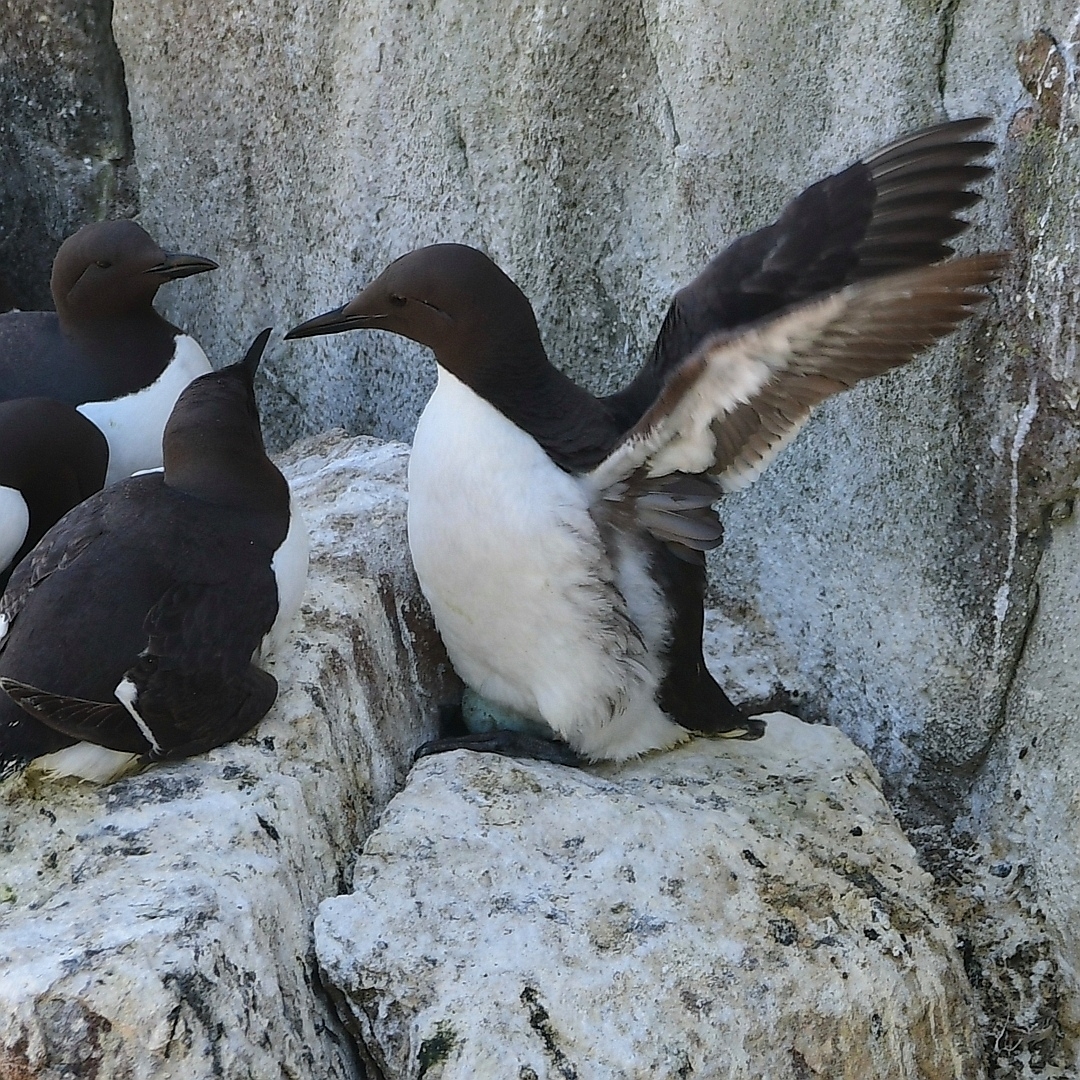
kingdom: Animalia
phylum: Chordata
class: Aves
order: Charadriiformes
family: Alcidae
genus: Uria
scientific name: Uria aalge
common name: Common murre
